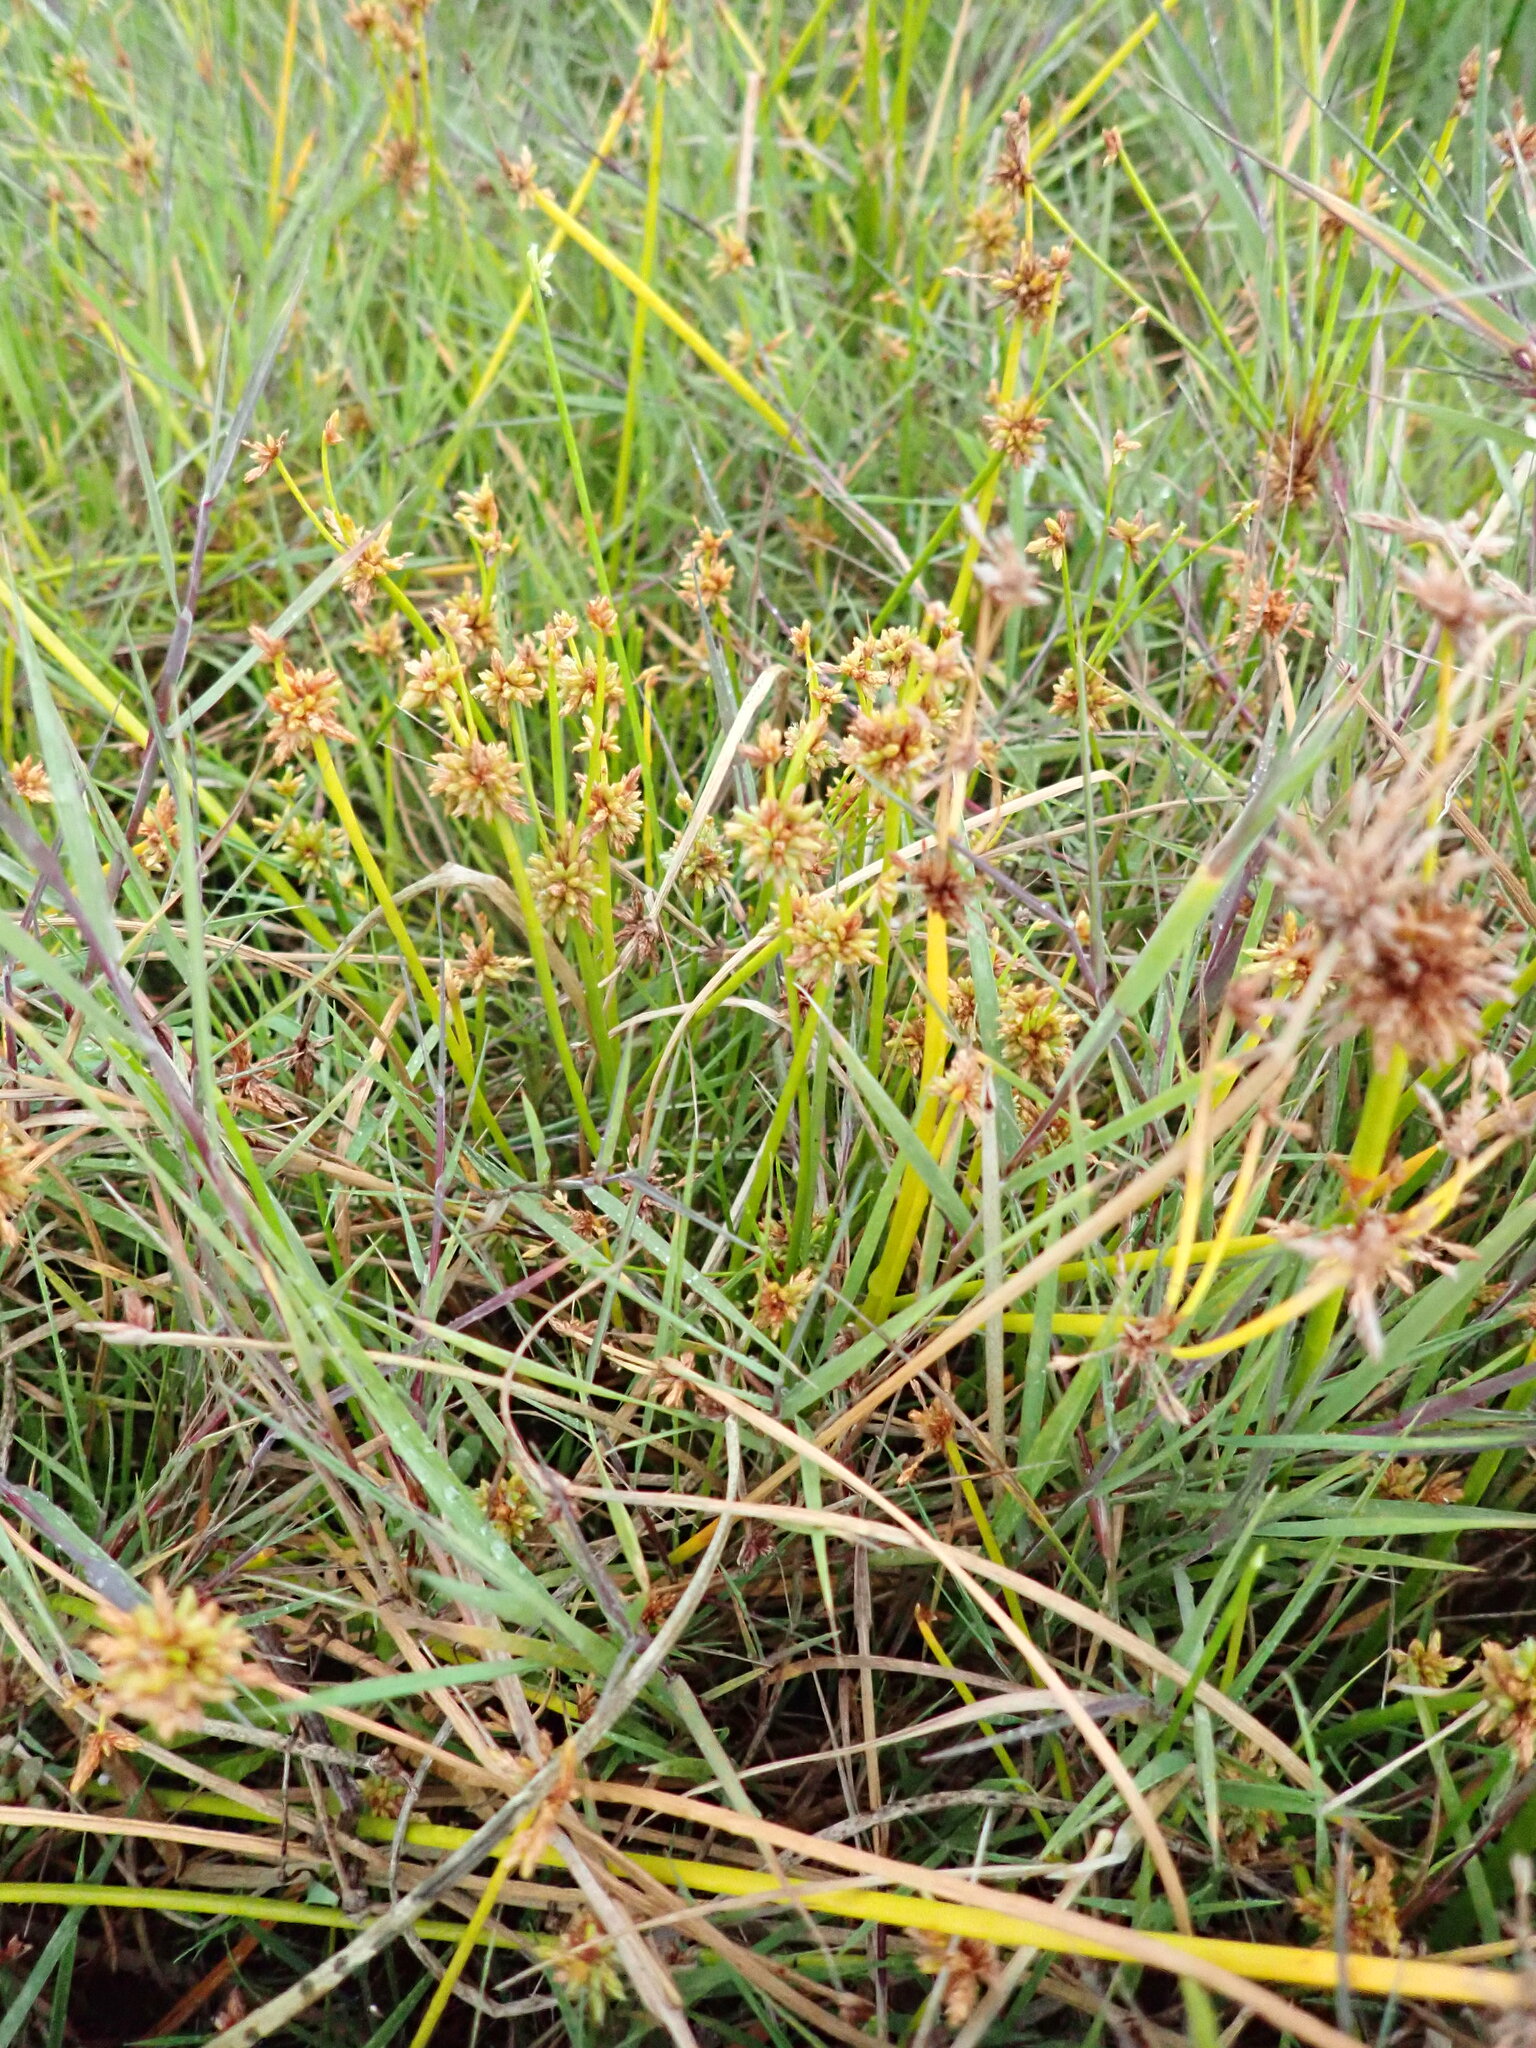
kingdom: Plantae
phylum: Tracheophyta
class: Liliopsida
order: Poales
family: Cyperaceae
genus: Isolepis
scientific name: Isolepis prolifera
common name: Proliferating bulrush
